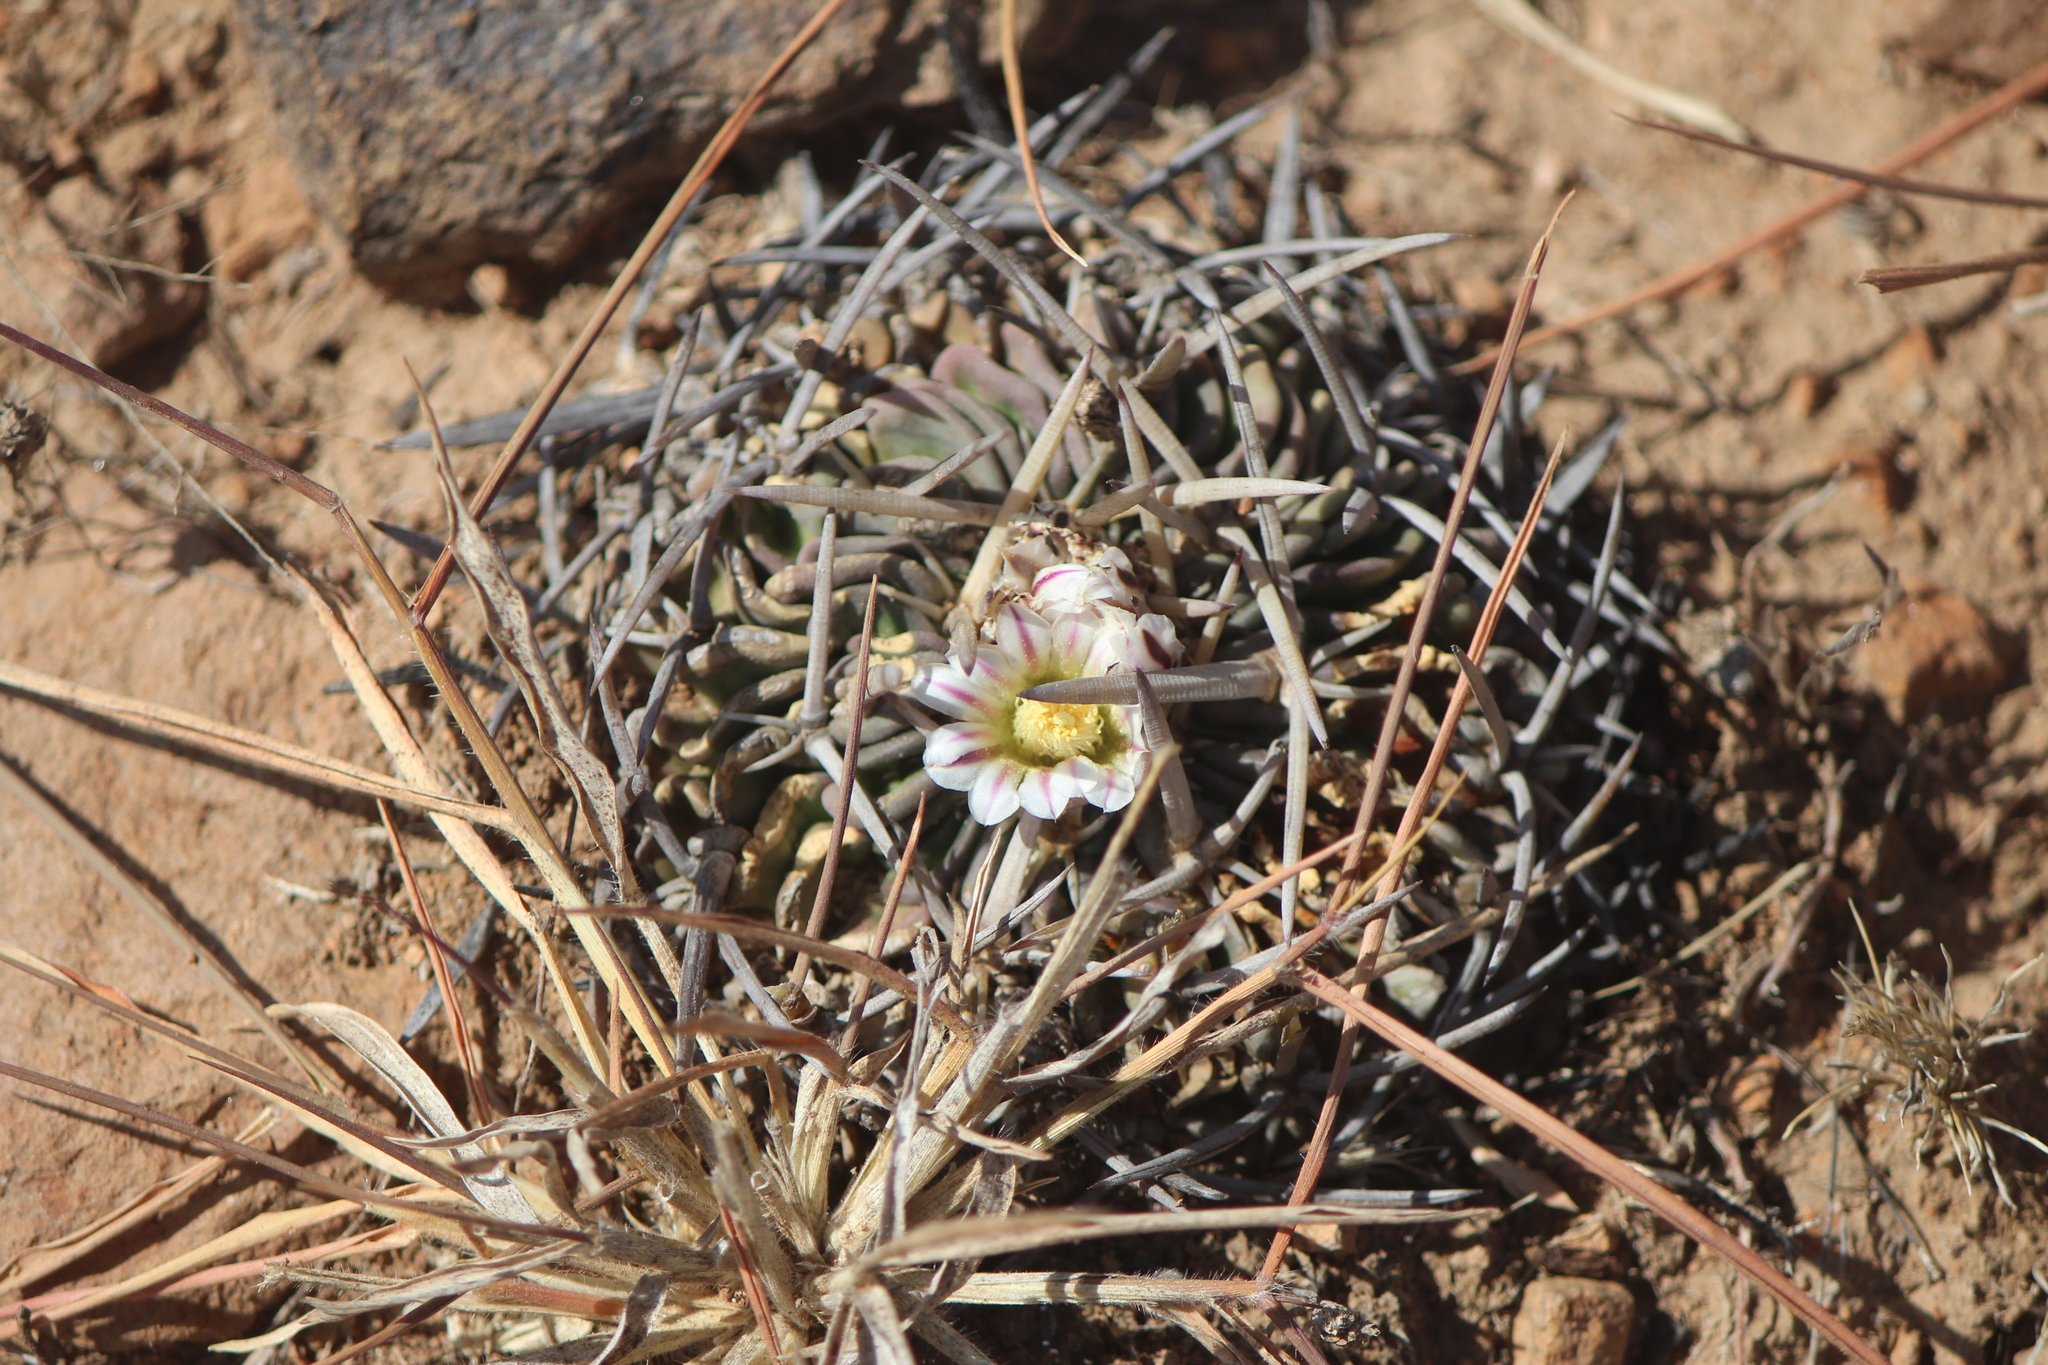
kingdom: Plantae
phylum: Tracheophyta
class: Magnoliopsida
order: Caryophyllales
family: Cactaceae
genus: Stenocactus
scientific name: Stenocactus crispatus
